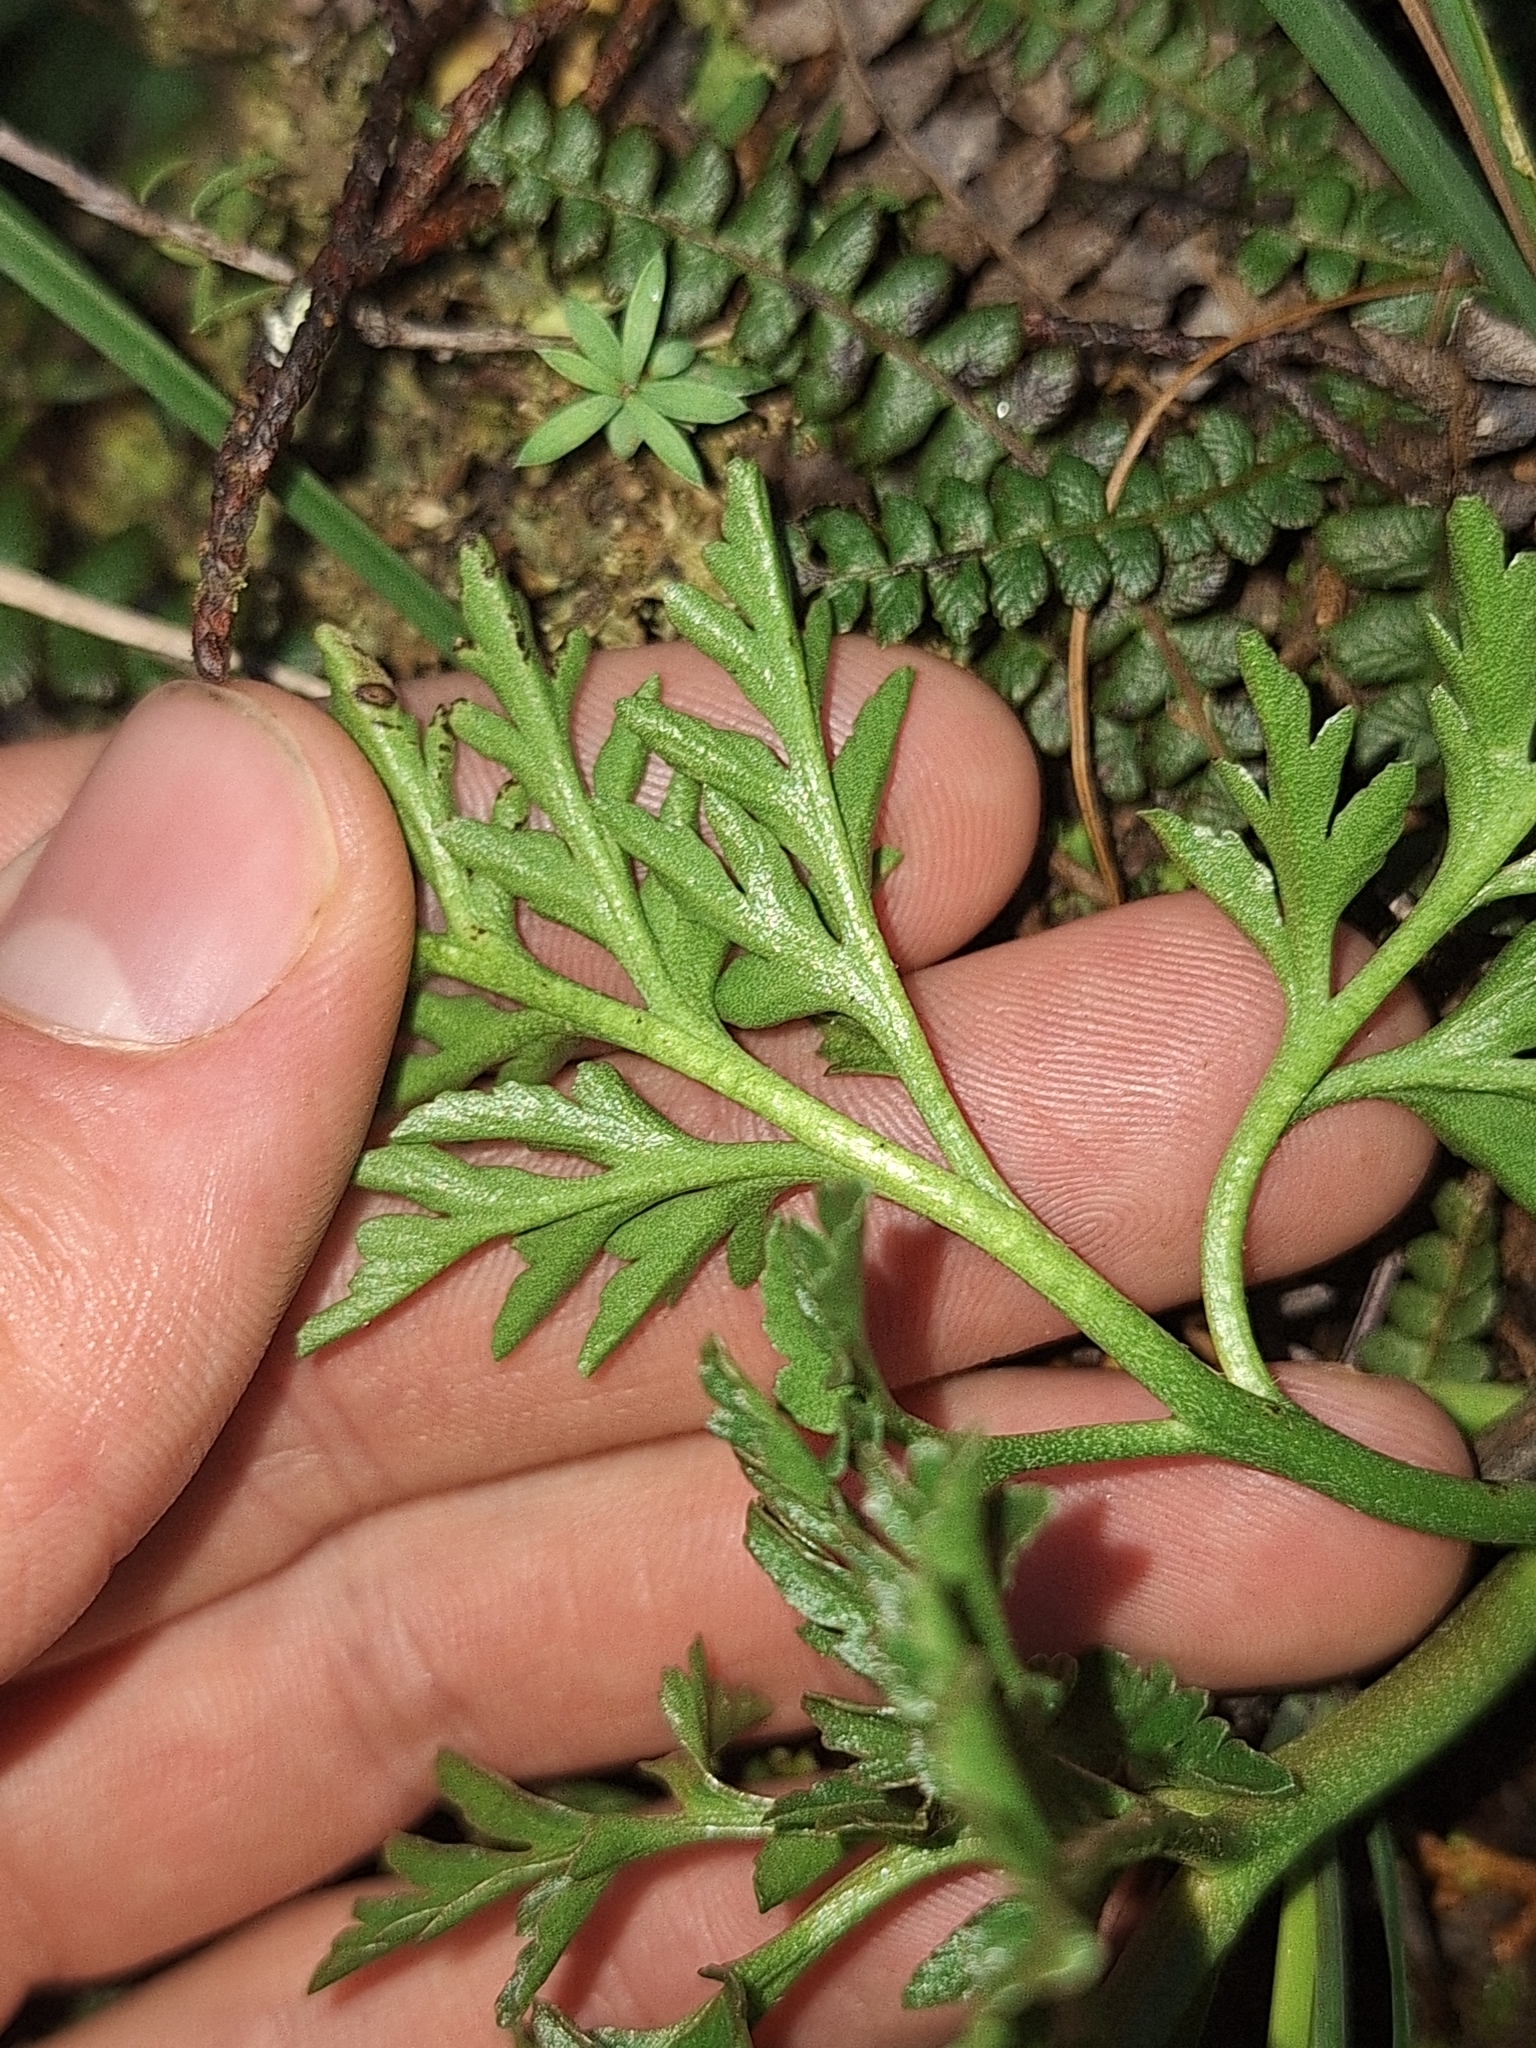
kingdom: Plantae
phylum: Tracheophyta
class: Polypodiopsida
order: Ophioglossales
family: Ophioglossaceae
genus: Sceptridium
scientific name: Sceptridium australe
